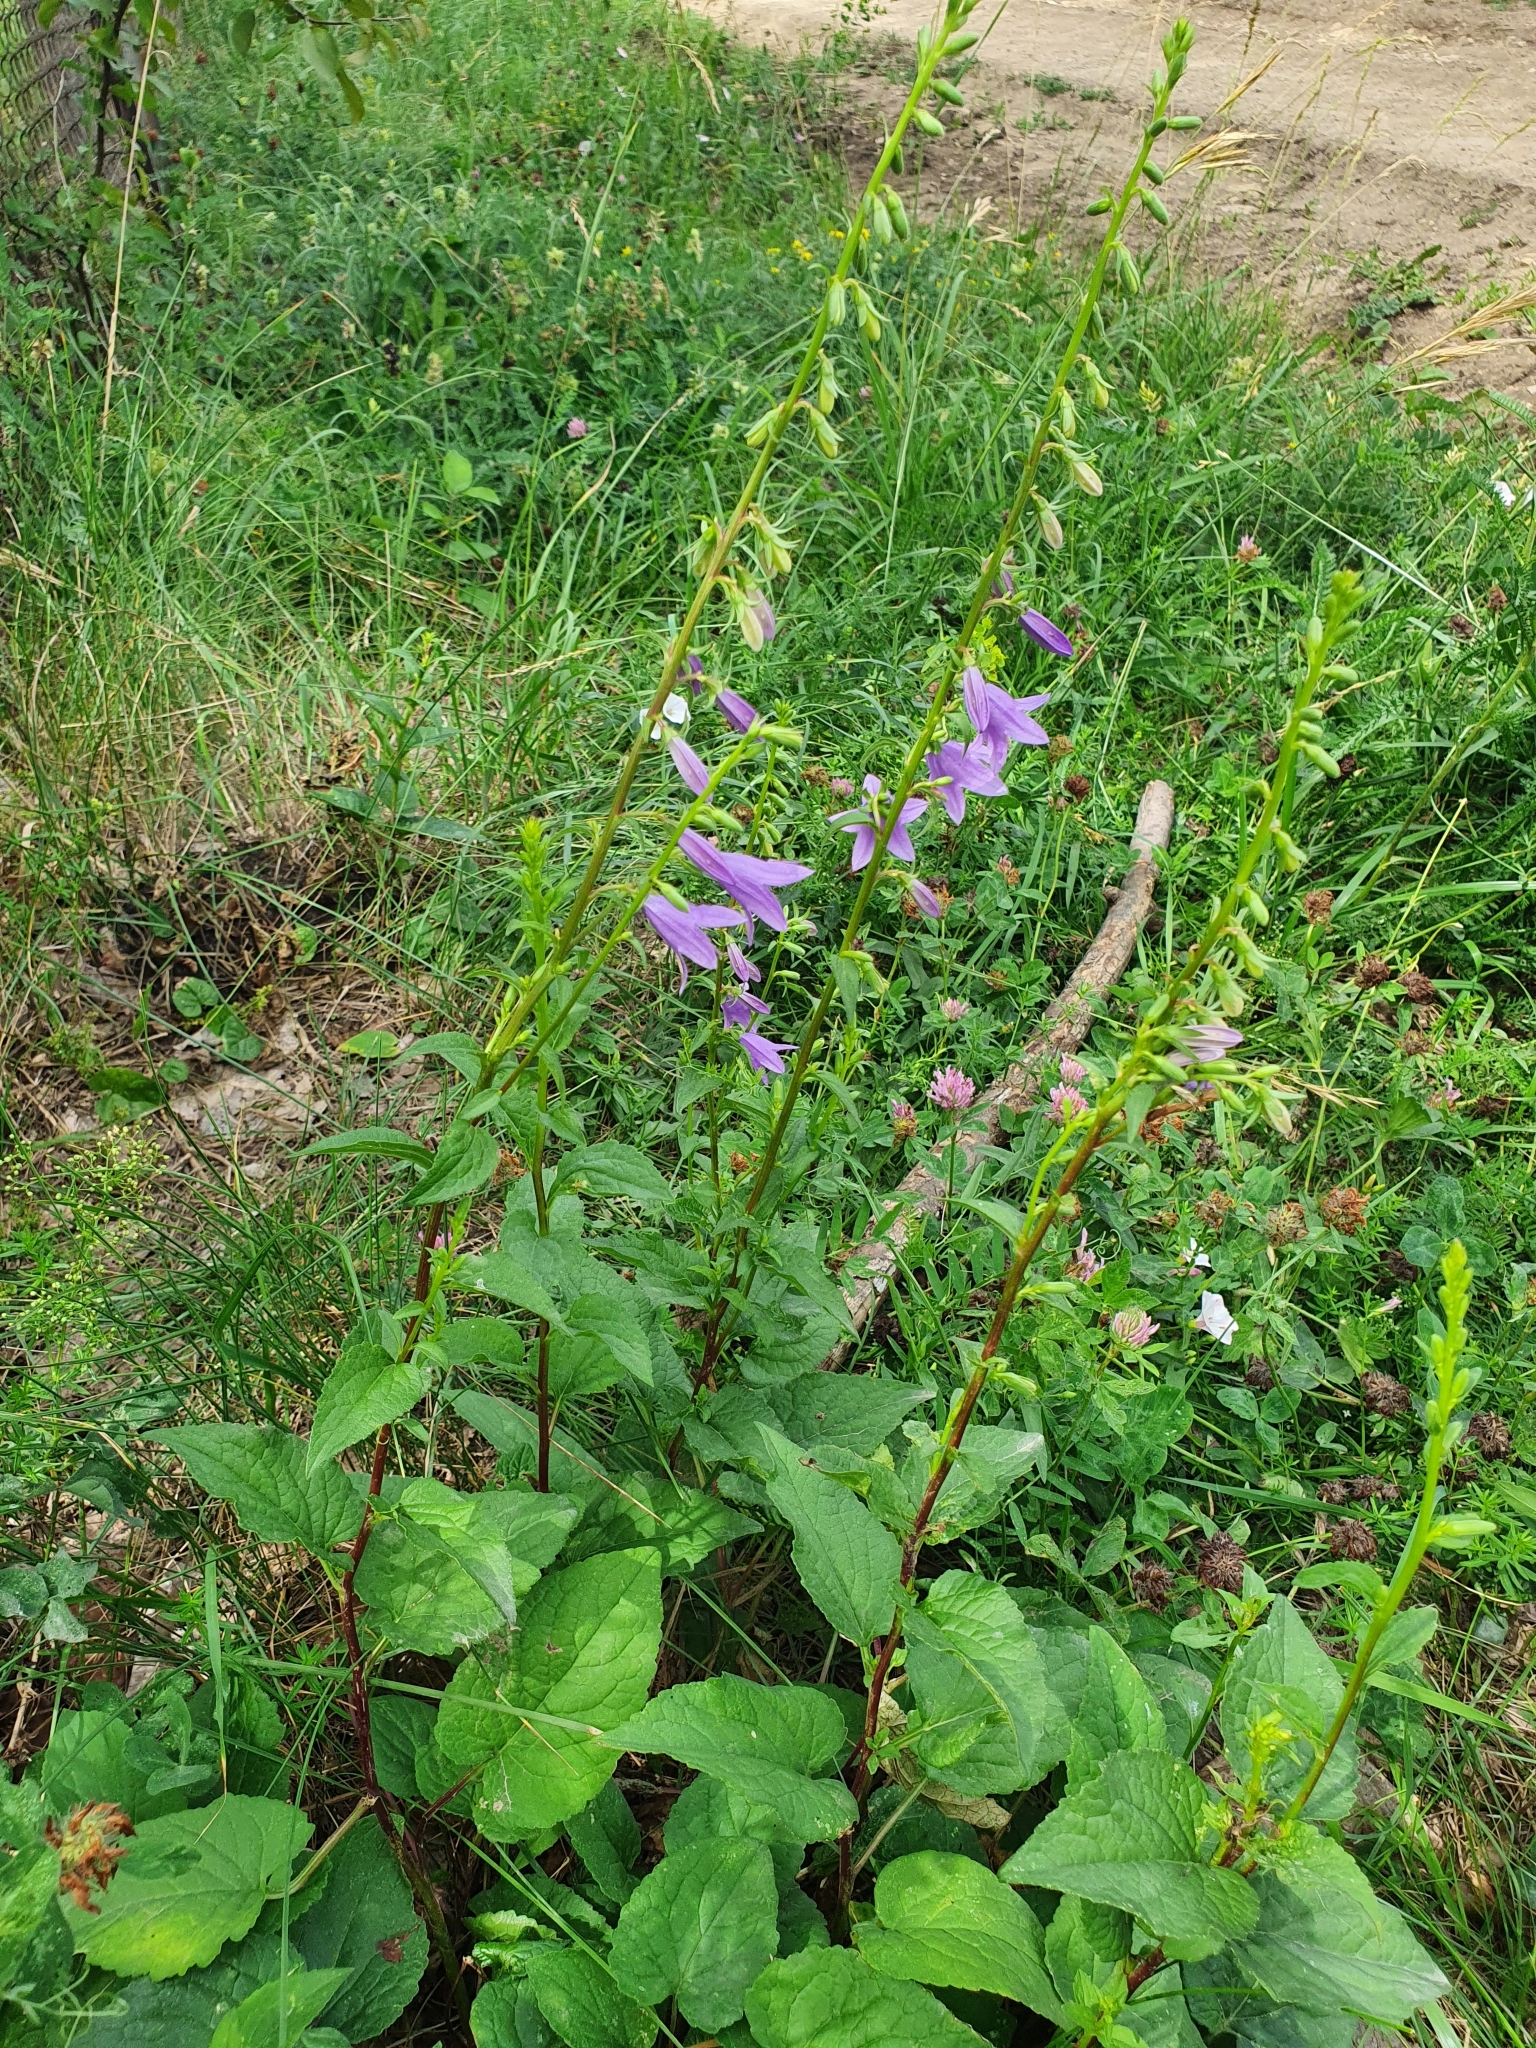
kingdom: Plantae
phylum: Tracheophyta
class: Magnoliopsida
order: Asterales
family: Campanulaceae
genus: Campanula
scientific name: Campanula latifolia
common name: Giant bellflower
